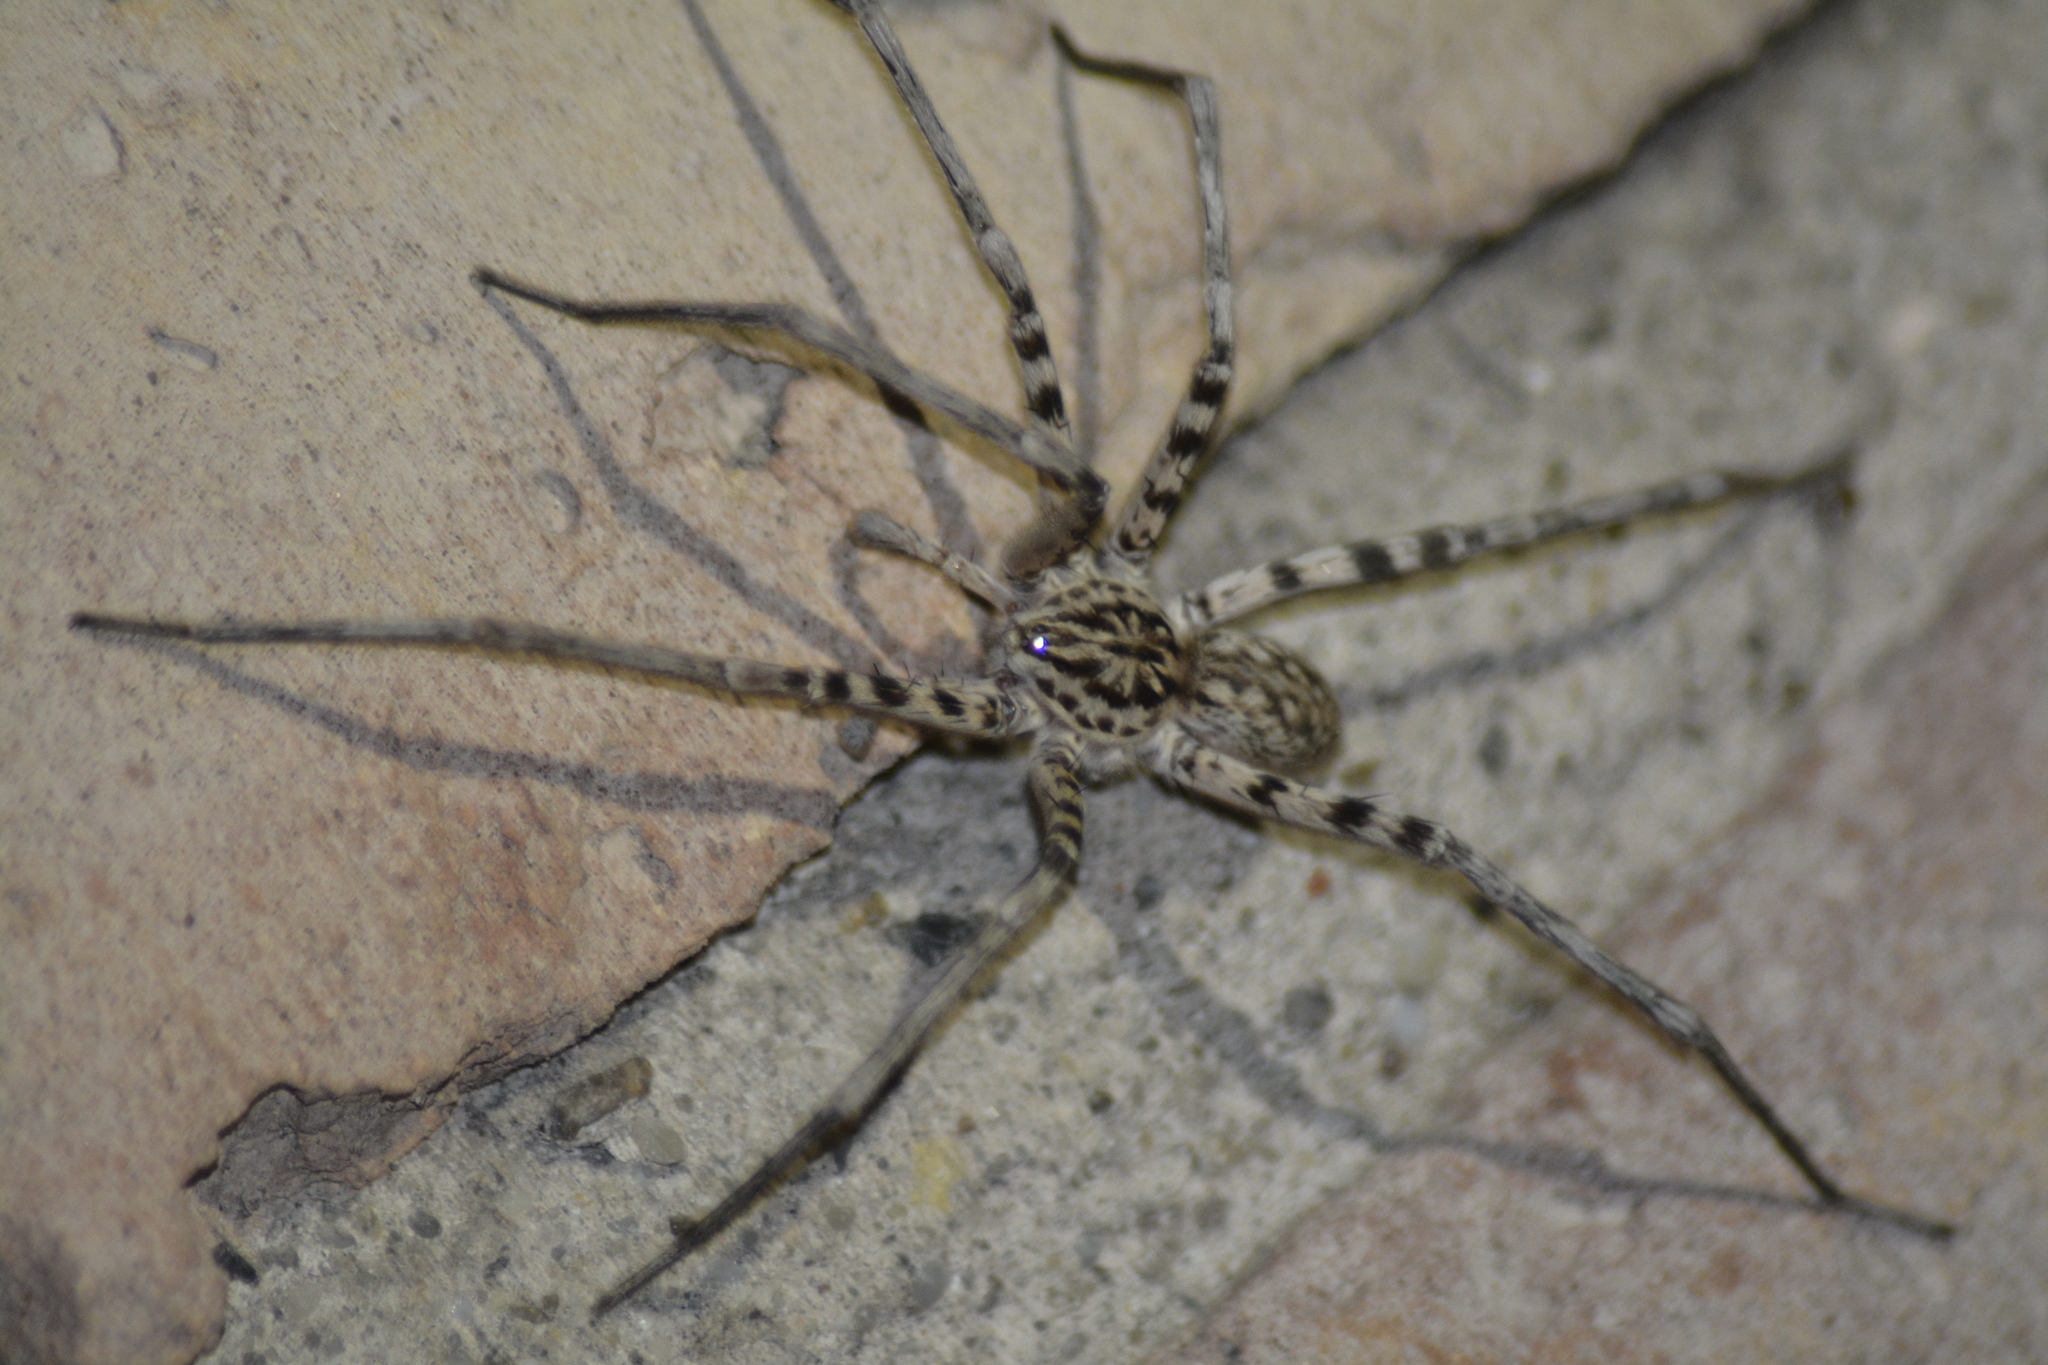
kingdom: Animalia
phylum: Arthropoda
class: Arachnida
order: Araneae
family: Xenoctenidae
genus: Xenoctenus
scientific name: Xenoctenus unguiculatus
